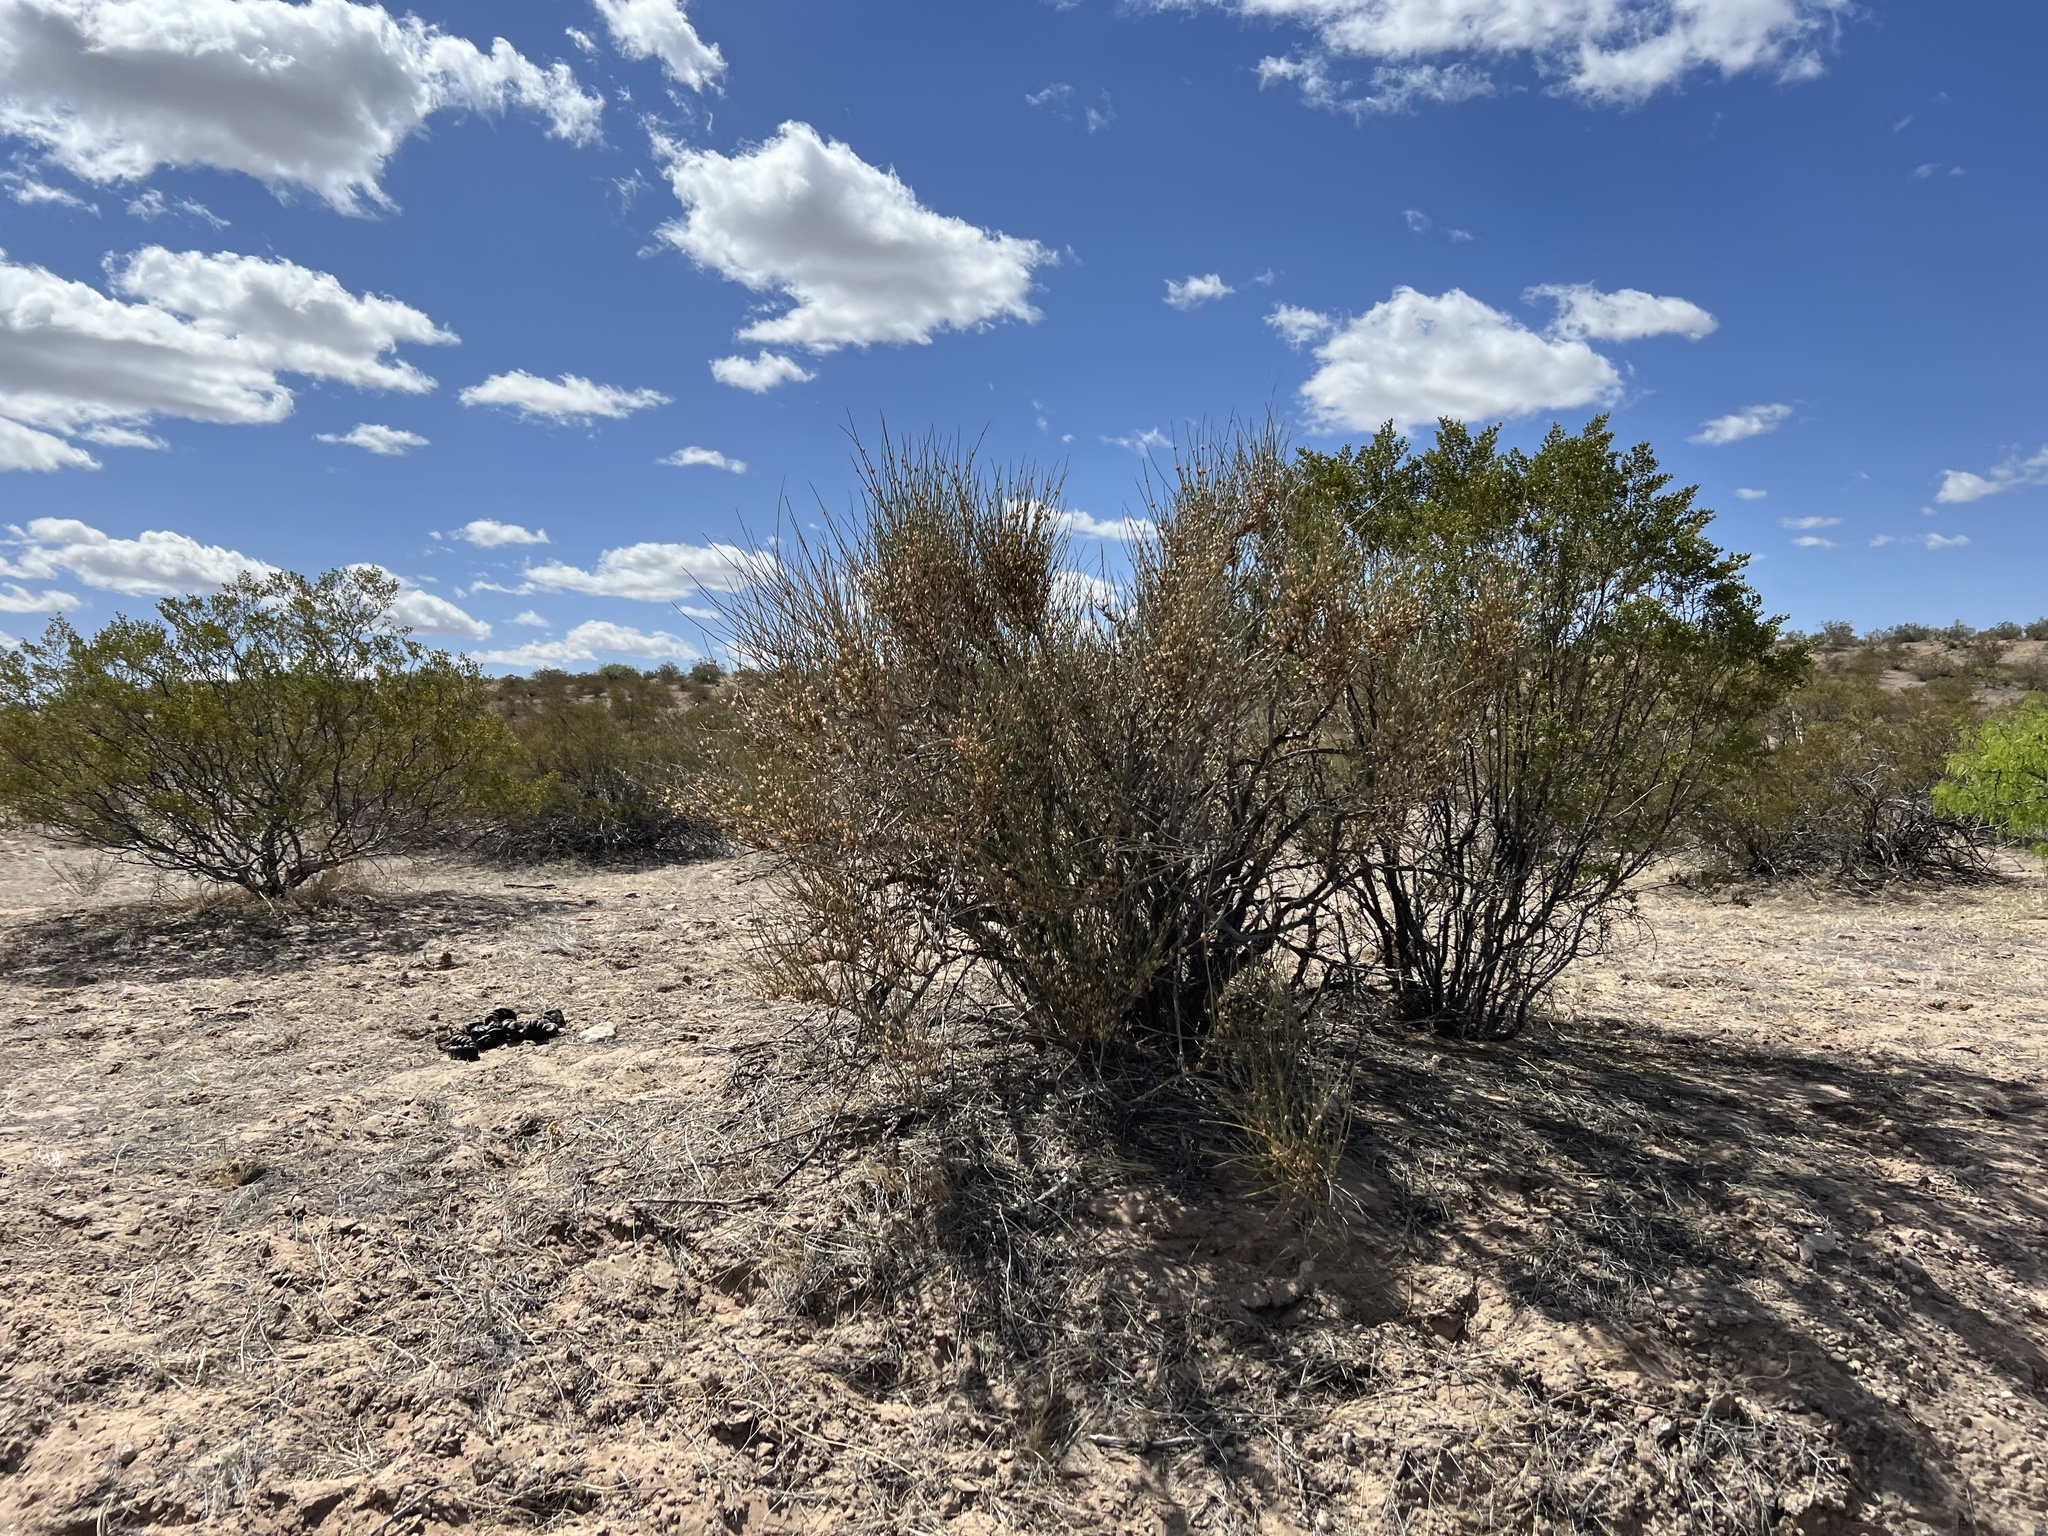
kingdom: Plantae
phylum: Tracheophyta
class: Gnetopsida
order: Ephedrales
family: Ephedraceae
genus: Ephedra
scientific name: Ephedra trifurca
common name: Mexican-tea
